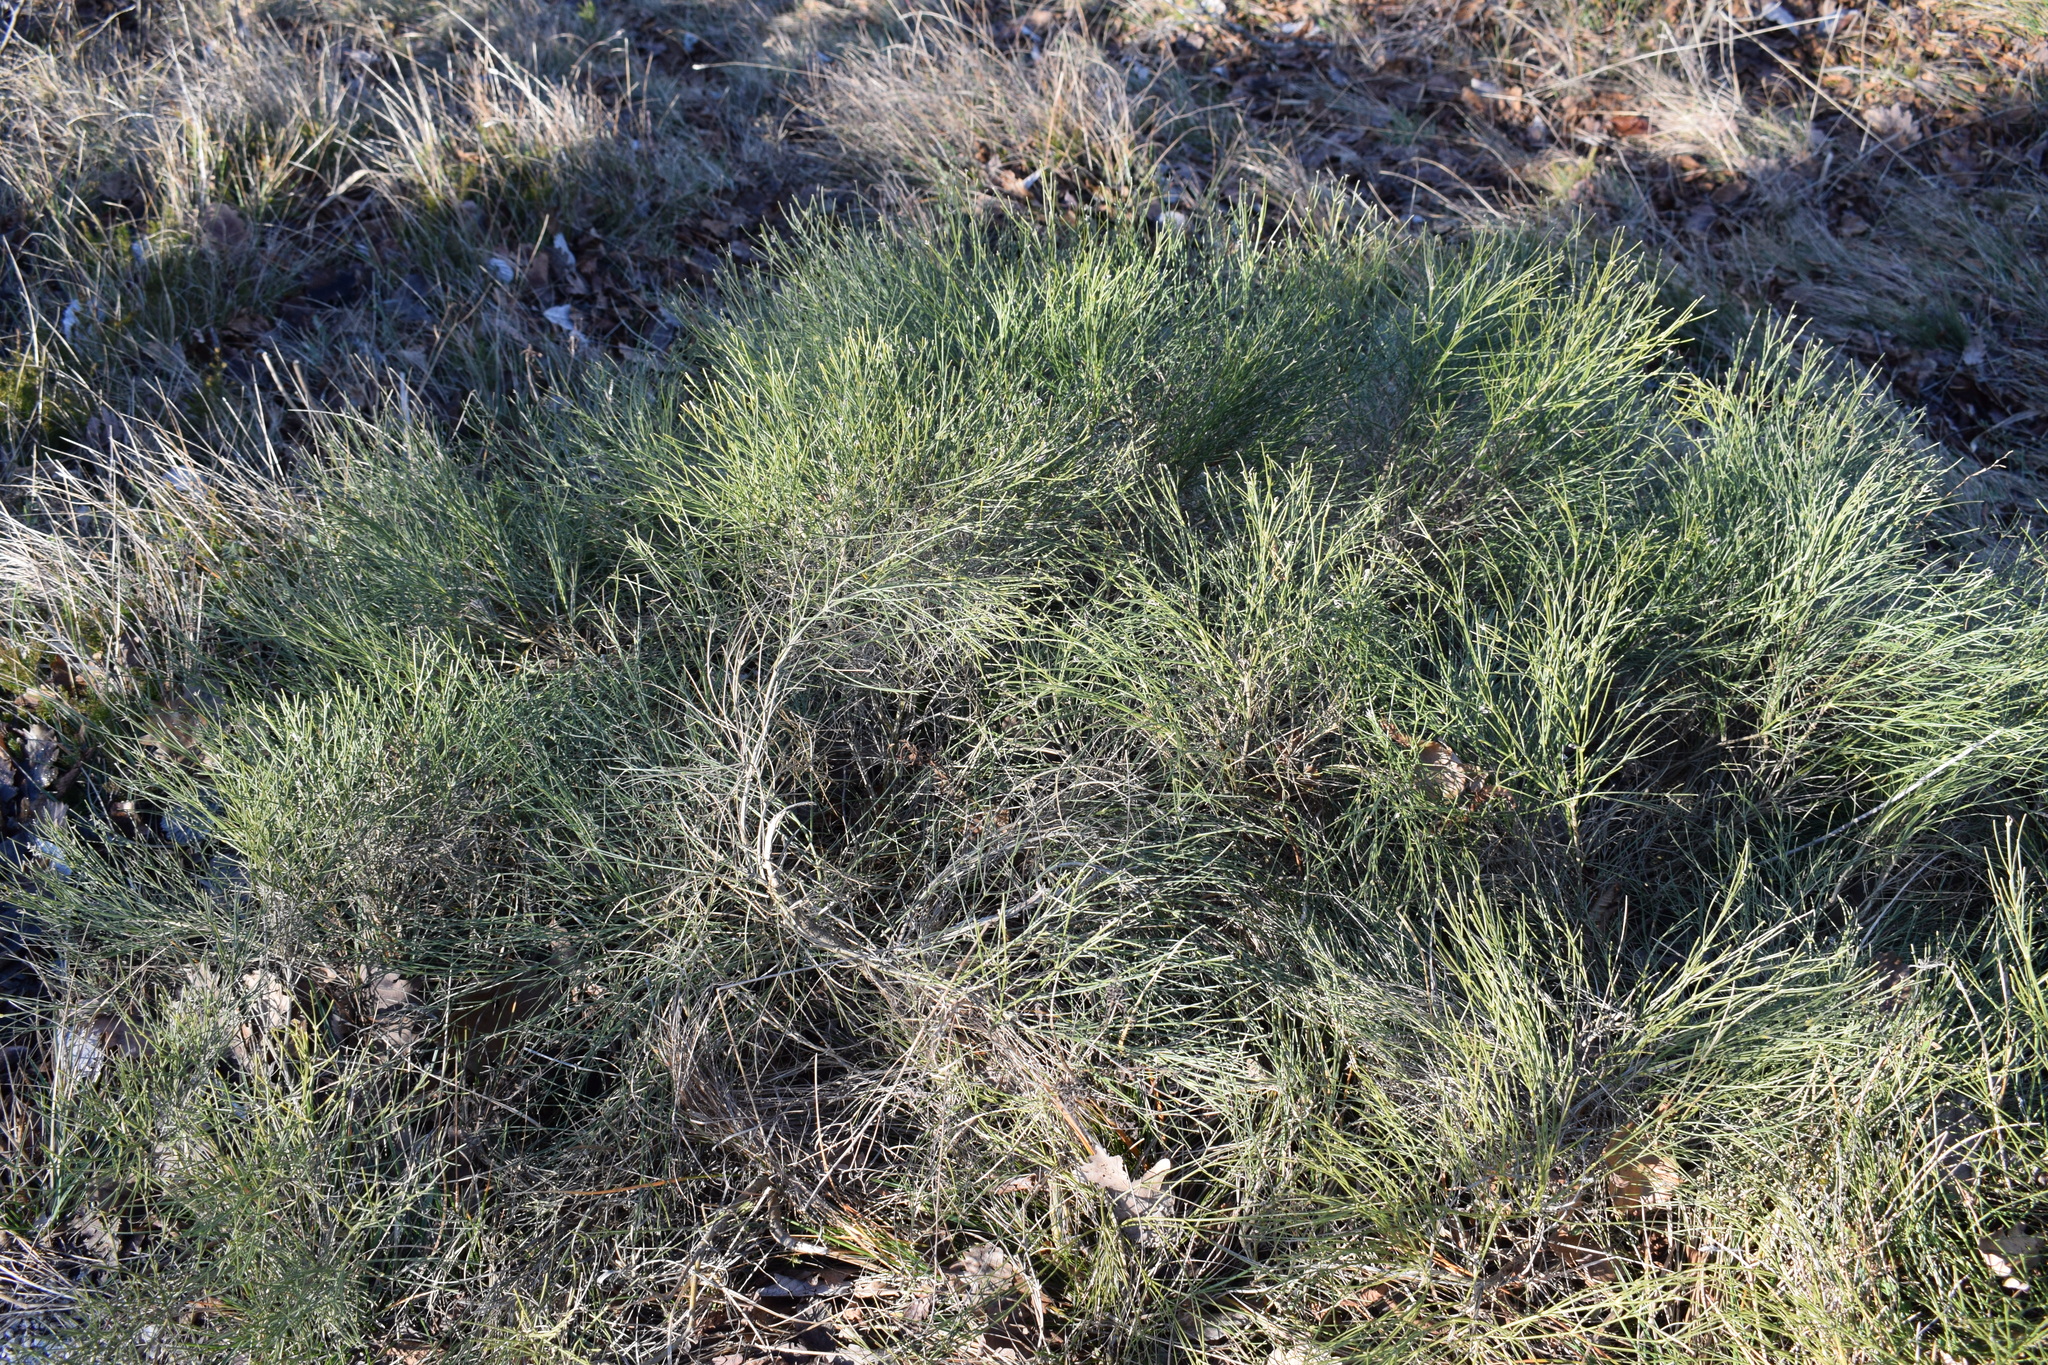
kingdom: Plantae
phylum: Tracheophyta
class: Magnoliopsida
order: Fabales
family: Fabaceae
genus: Genista
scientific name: Genista radiata
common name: Southern greenweed
